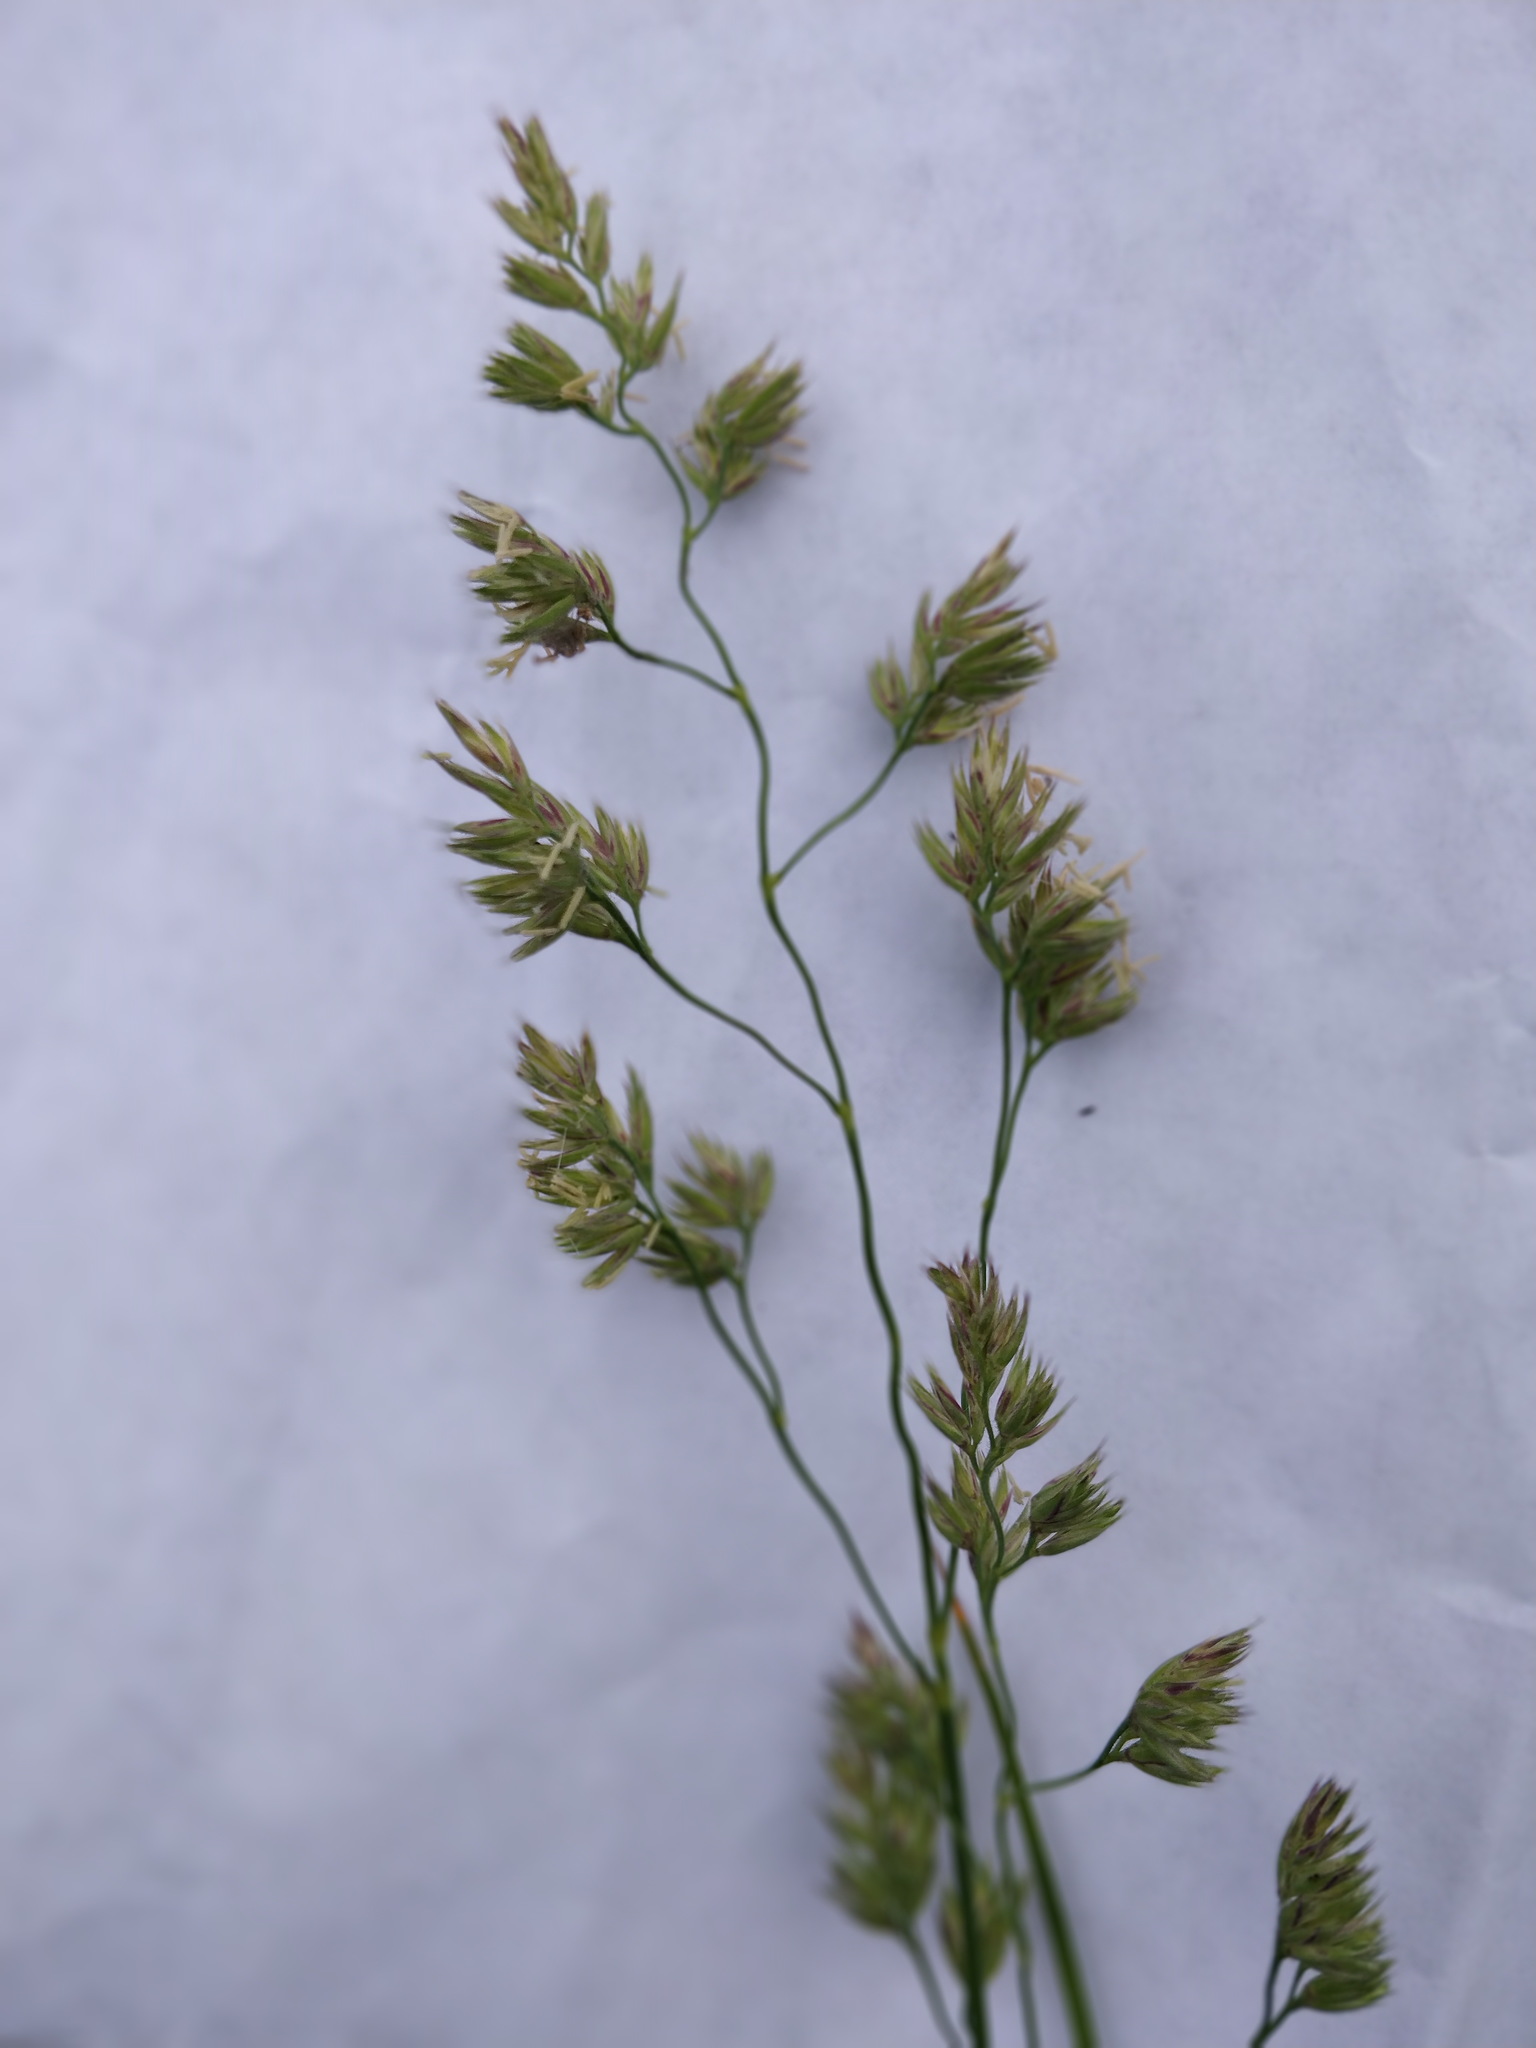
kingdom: Plantae
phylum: Tracheophyta
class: Liliopsida
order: Poales
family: Poaceae
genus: Dactylis
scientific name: Dactylis glomerata
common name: Orchardgrass
